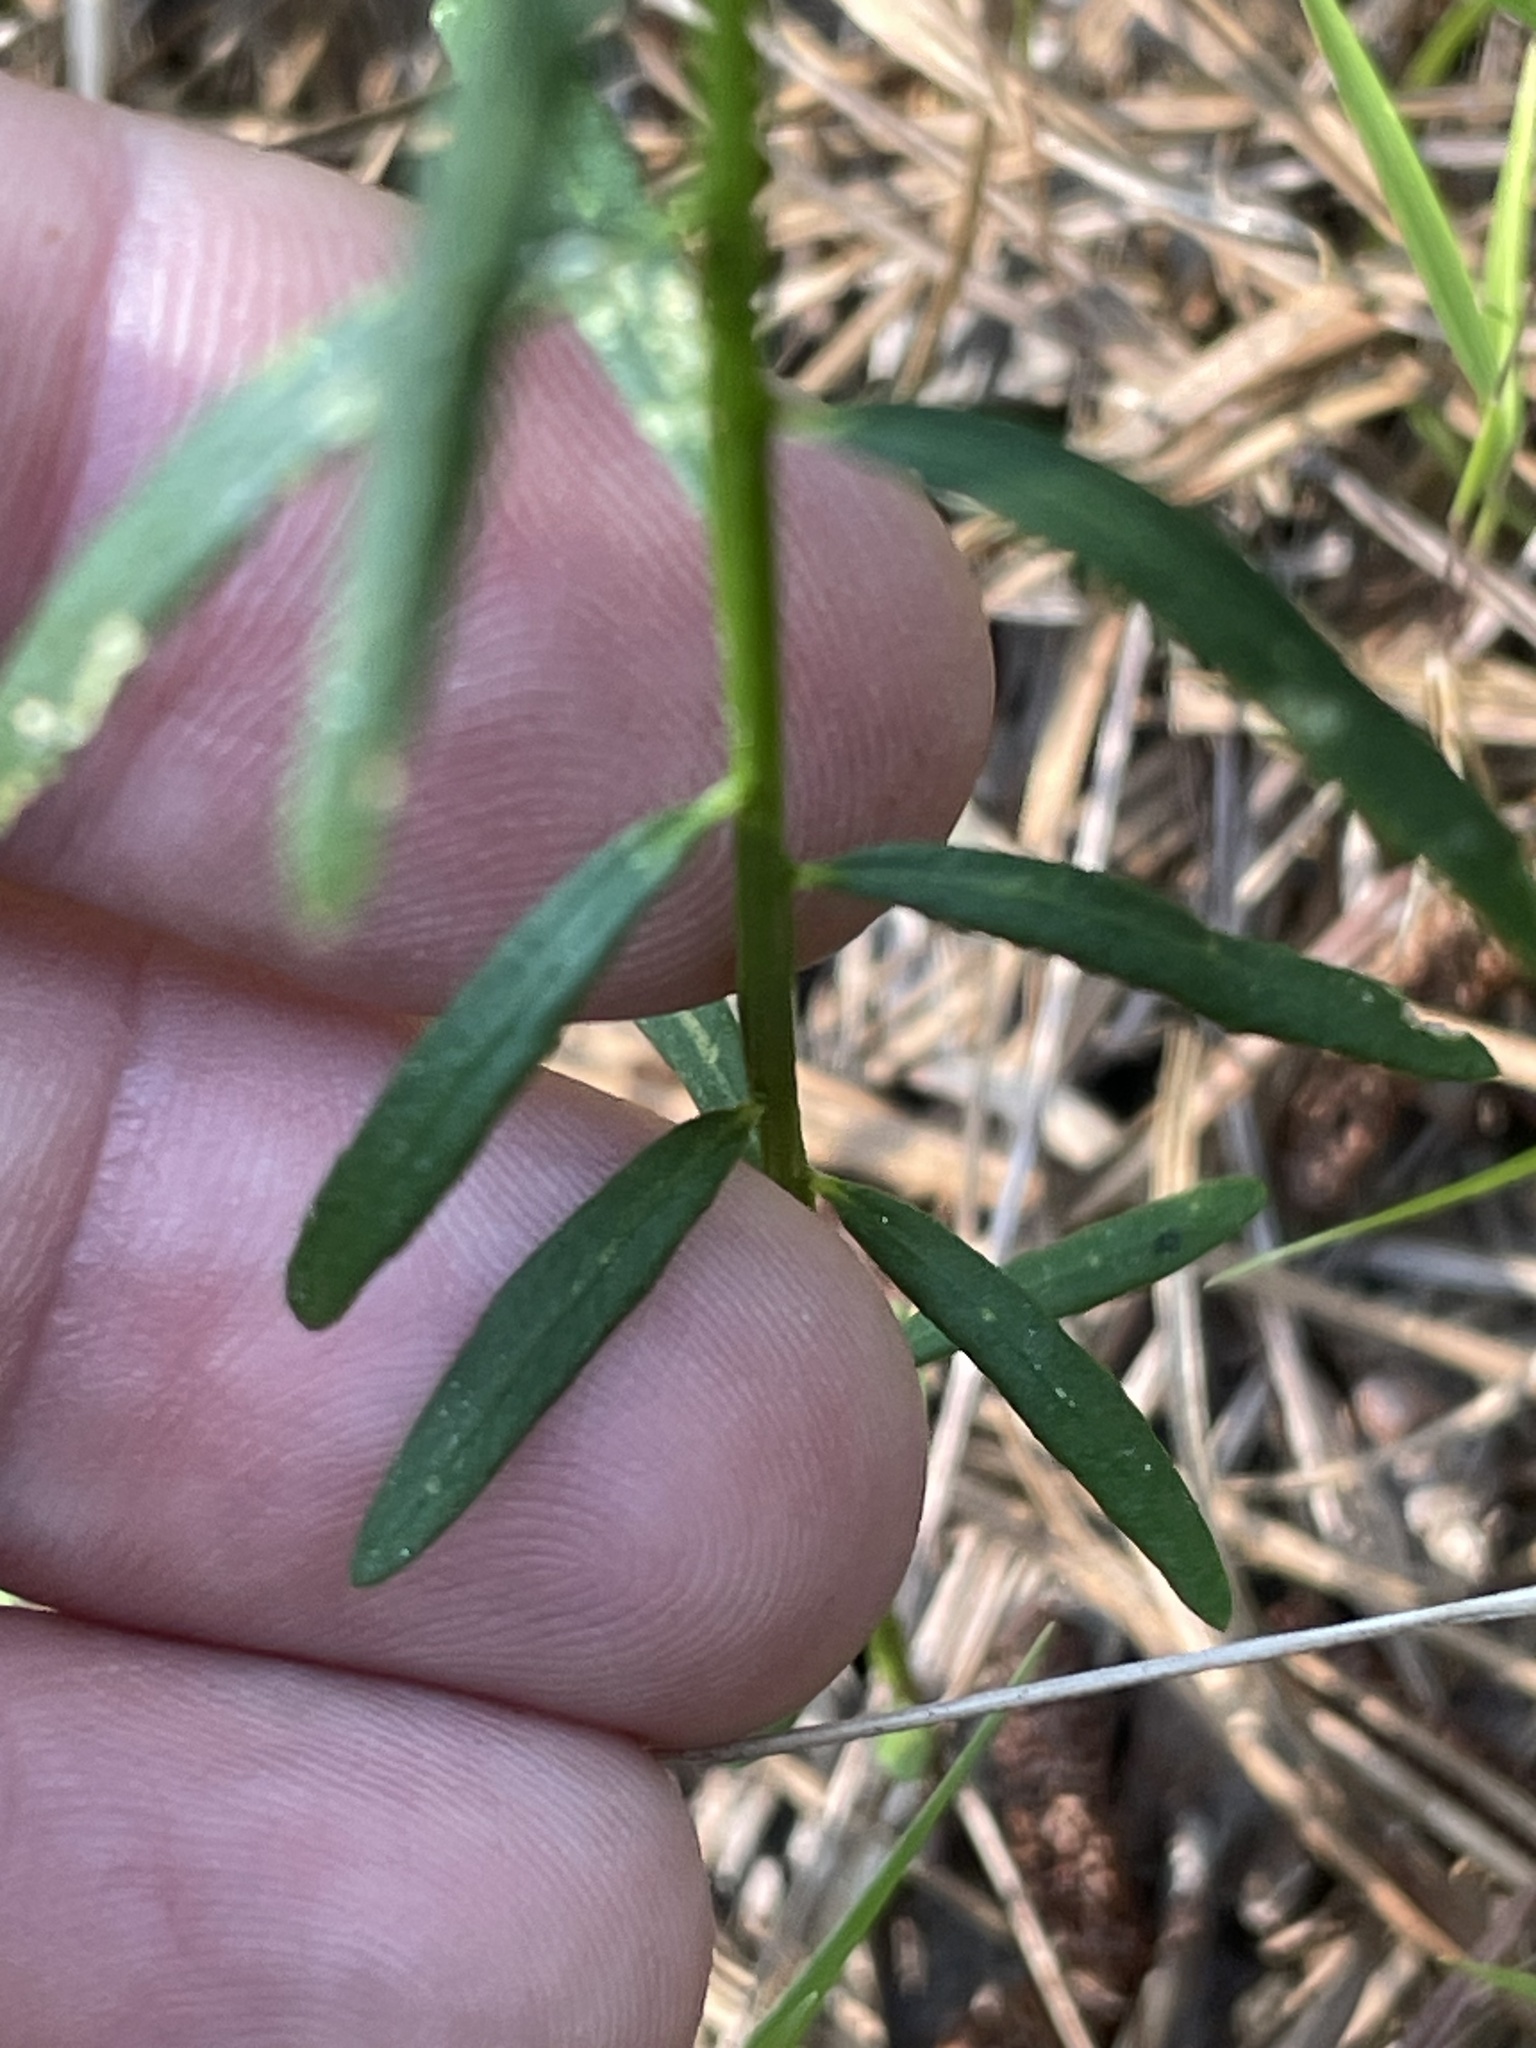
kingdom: Plantae
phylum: Tracheophyta
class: Magnoliopsida
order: Fabales
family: Polygalaceae
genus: Polygala
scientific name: Polygala curtissii
